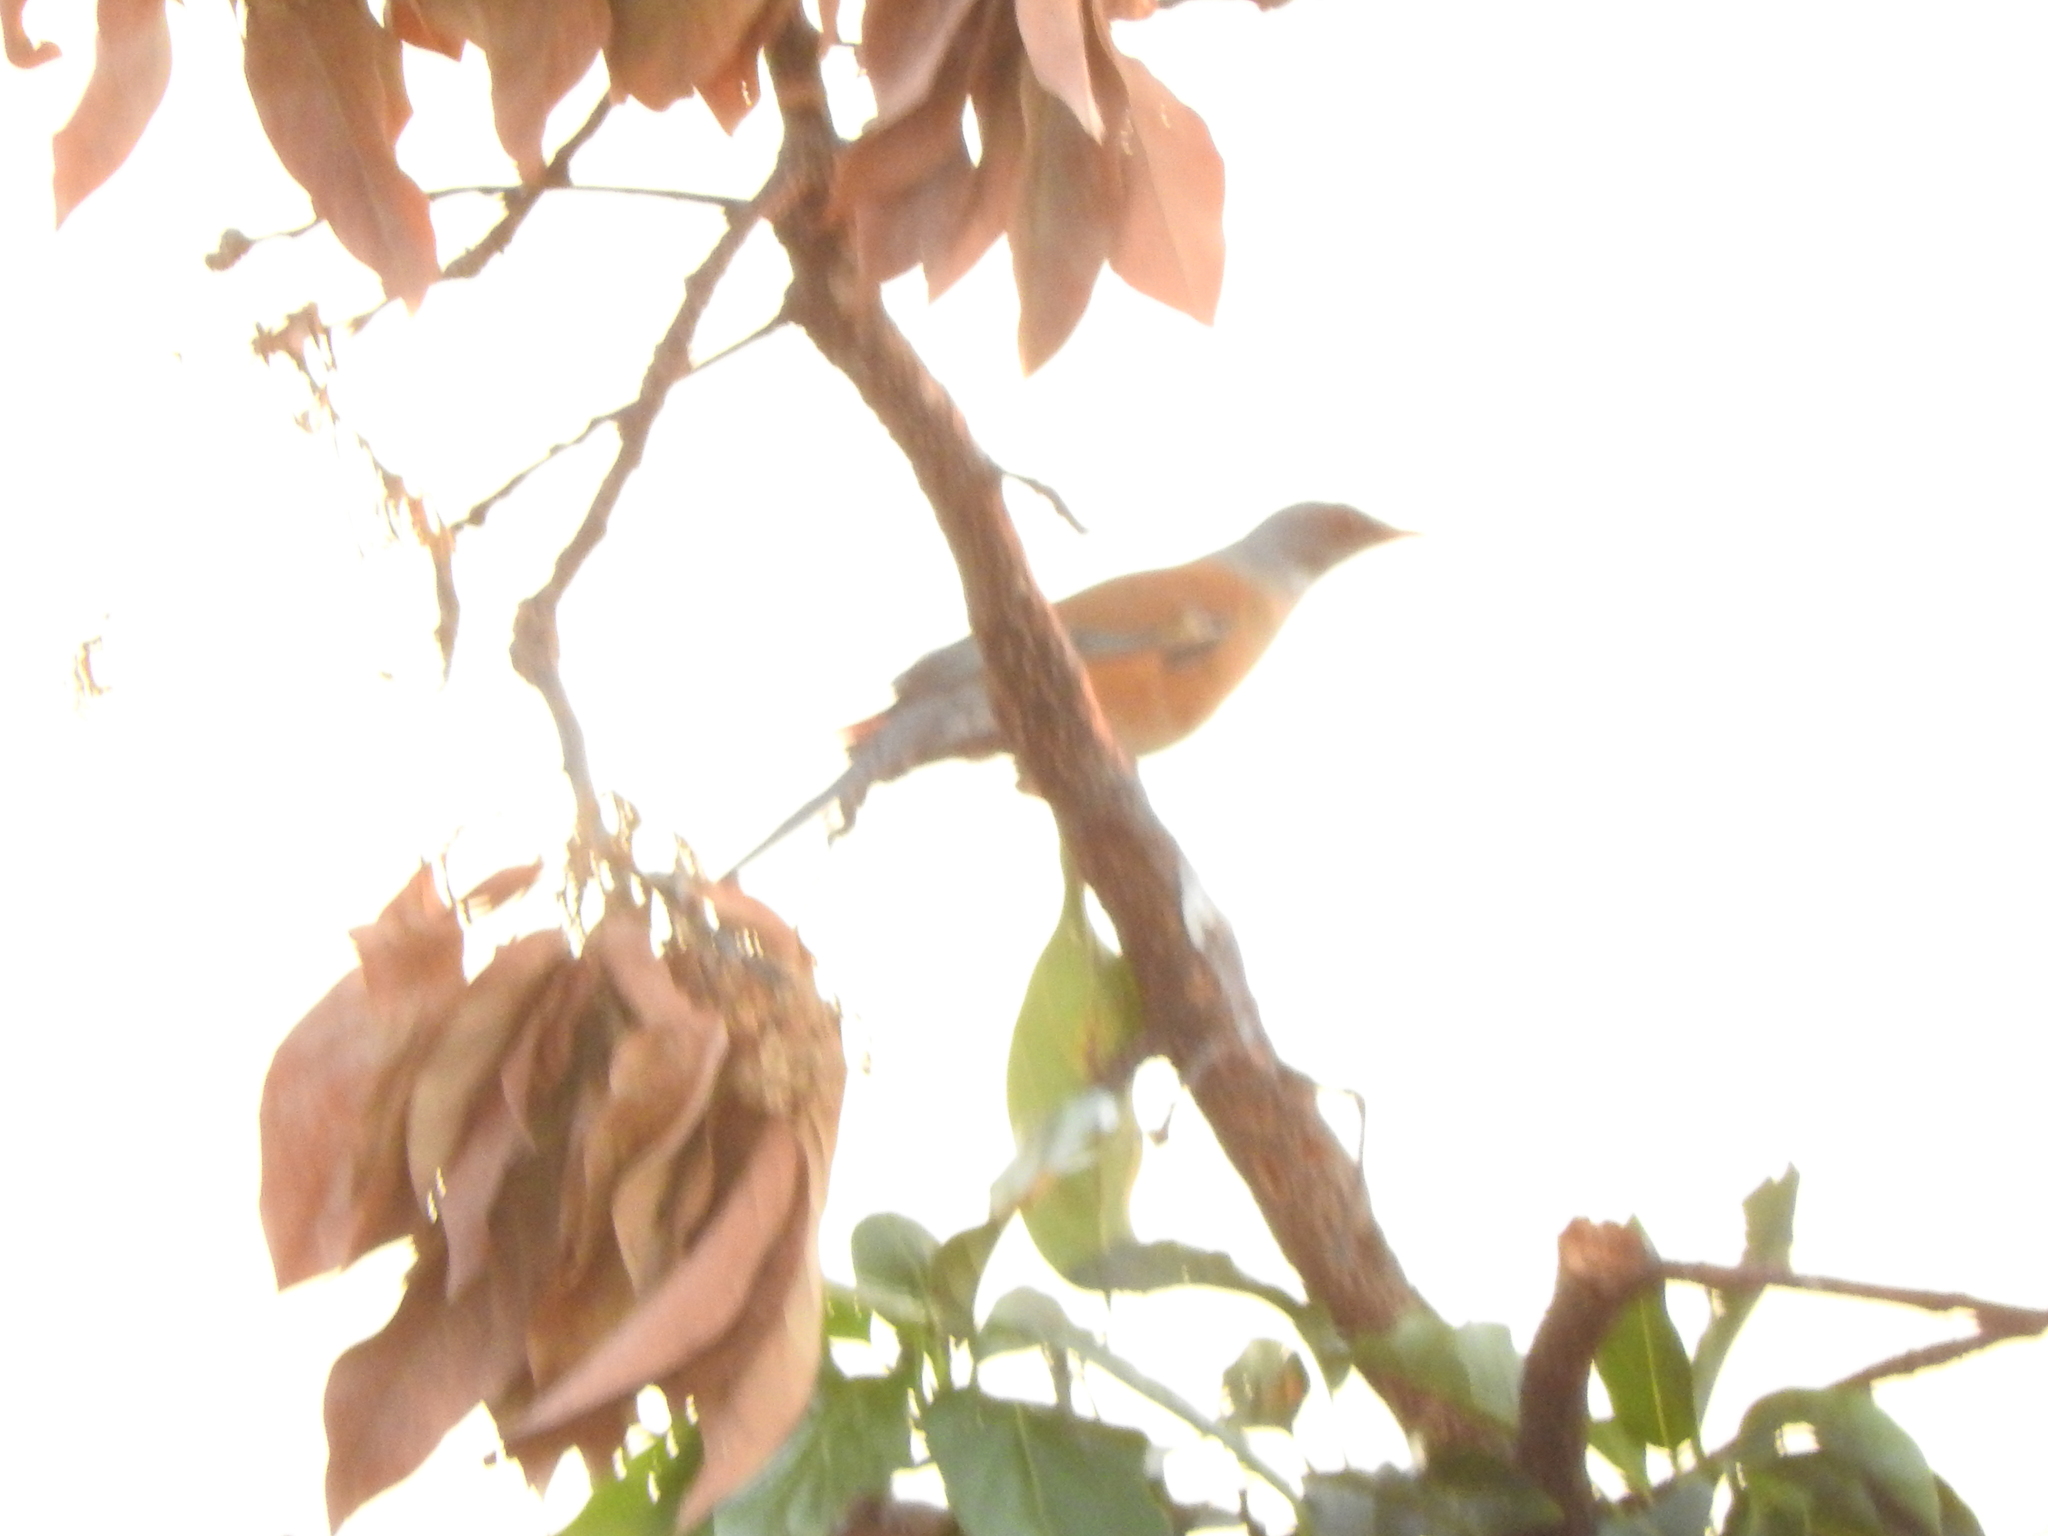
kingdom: Animalia
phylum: Chordata
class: Aves
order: Passeriformes
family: Turdidae
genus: Turdus
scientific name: Turdus rufopalliatus
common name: Rufous-backed robin
